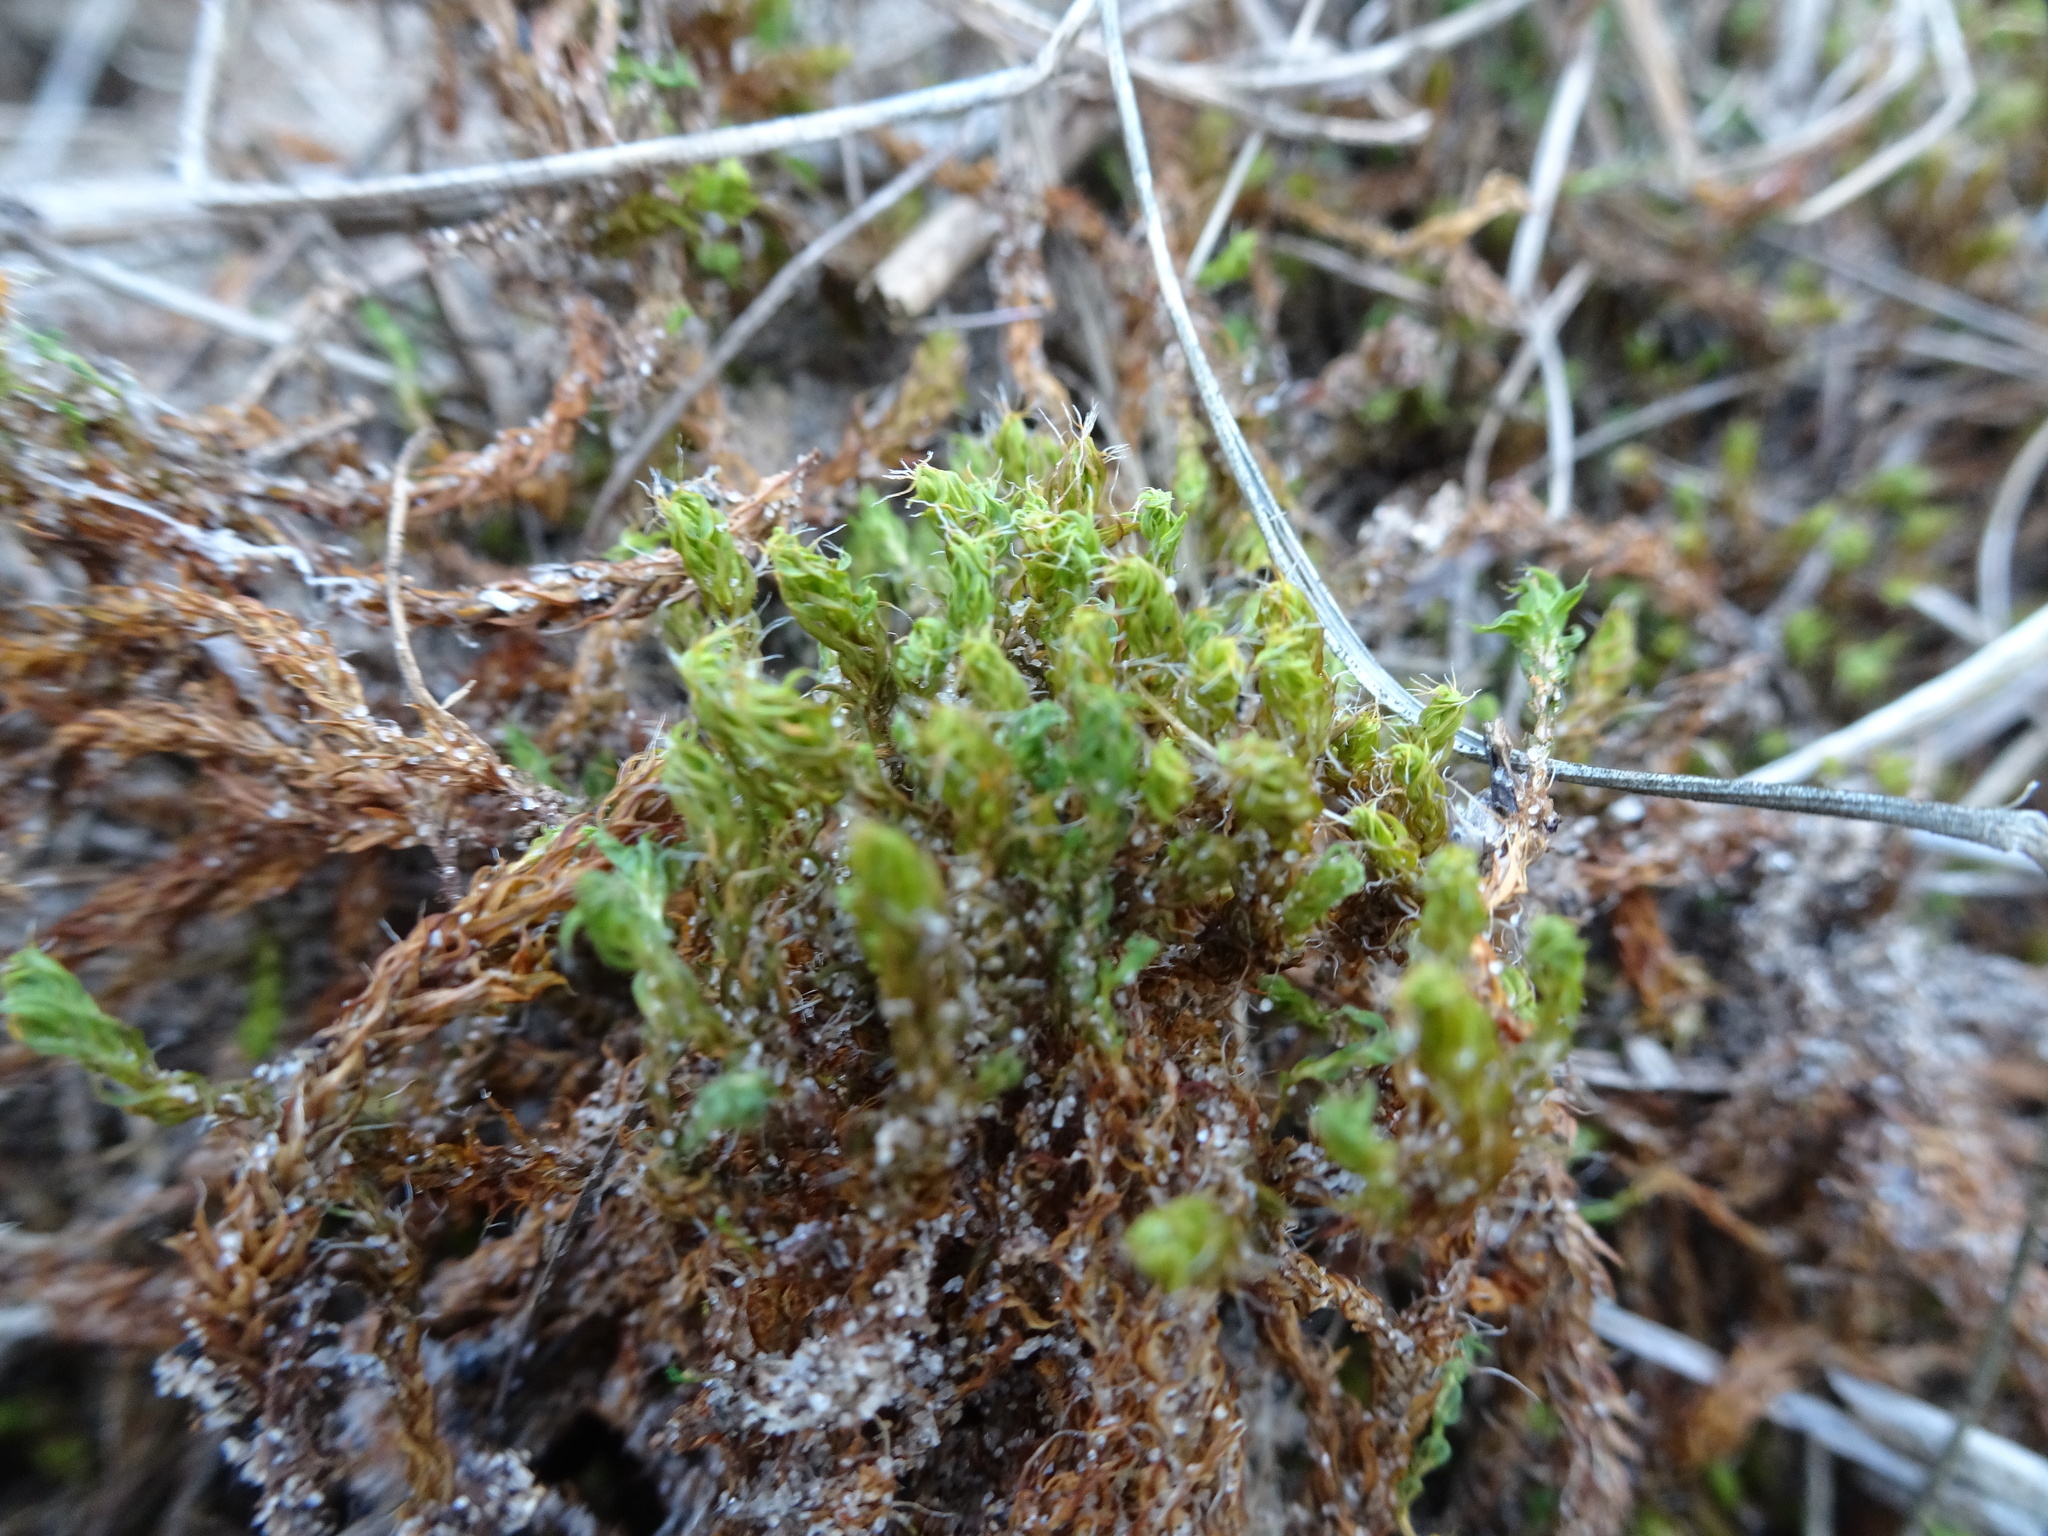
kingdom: Plantae
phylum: Bryophyta
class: Bryopsida
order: Pottiales
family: Pottiaceae
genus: Syntrichia
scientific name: Syntrichia ruralis
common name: Sidewalk screw moss
